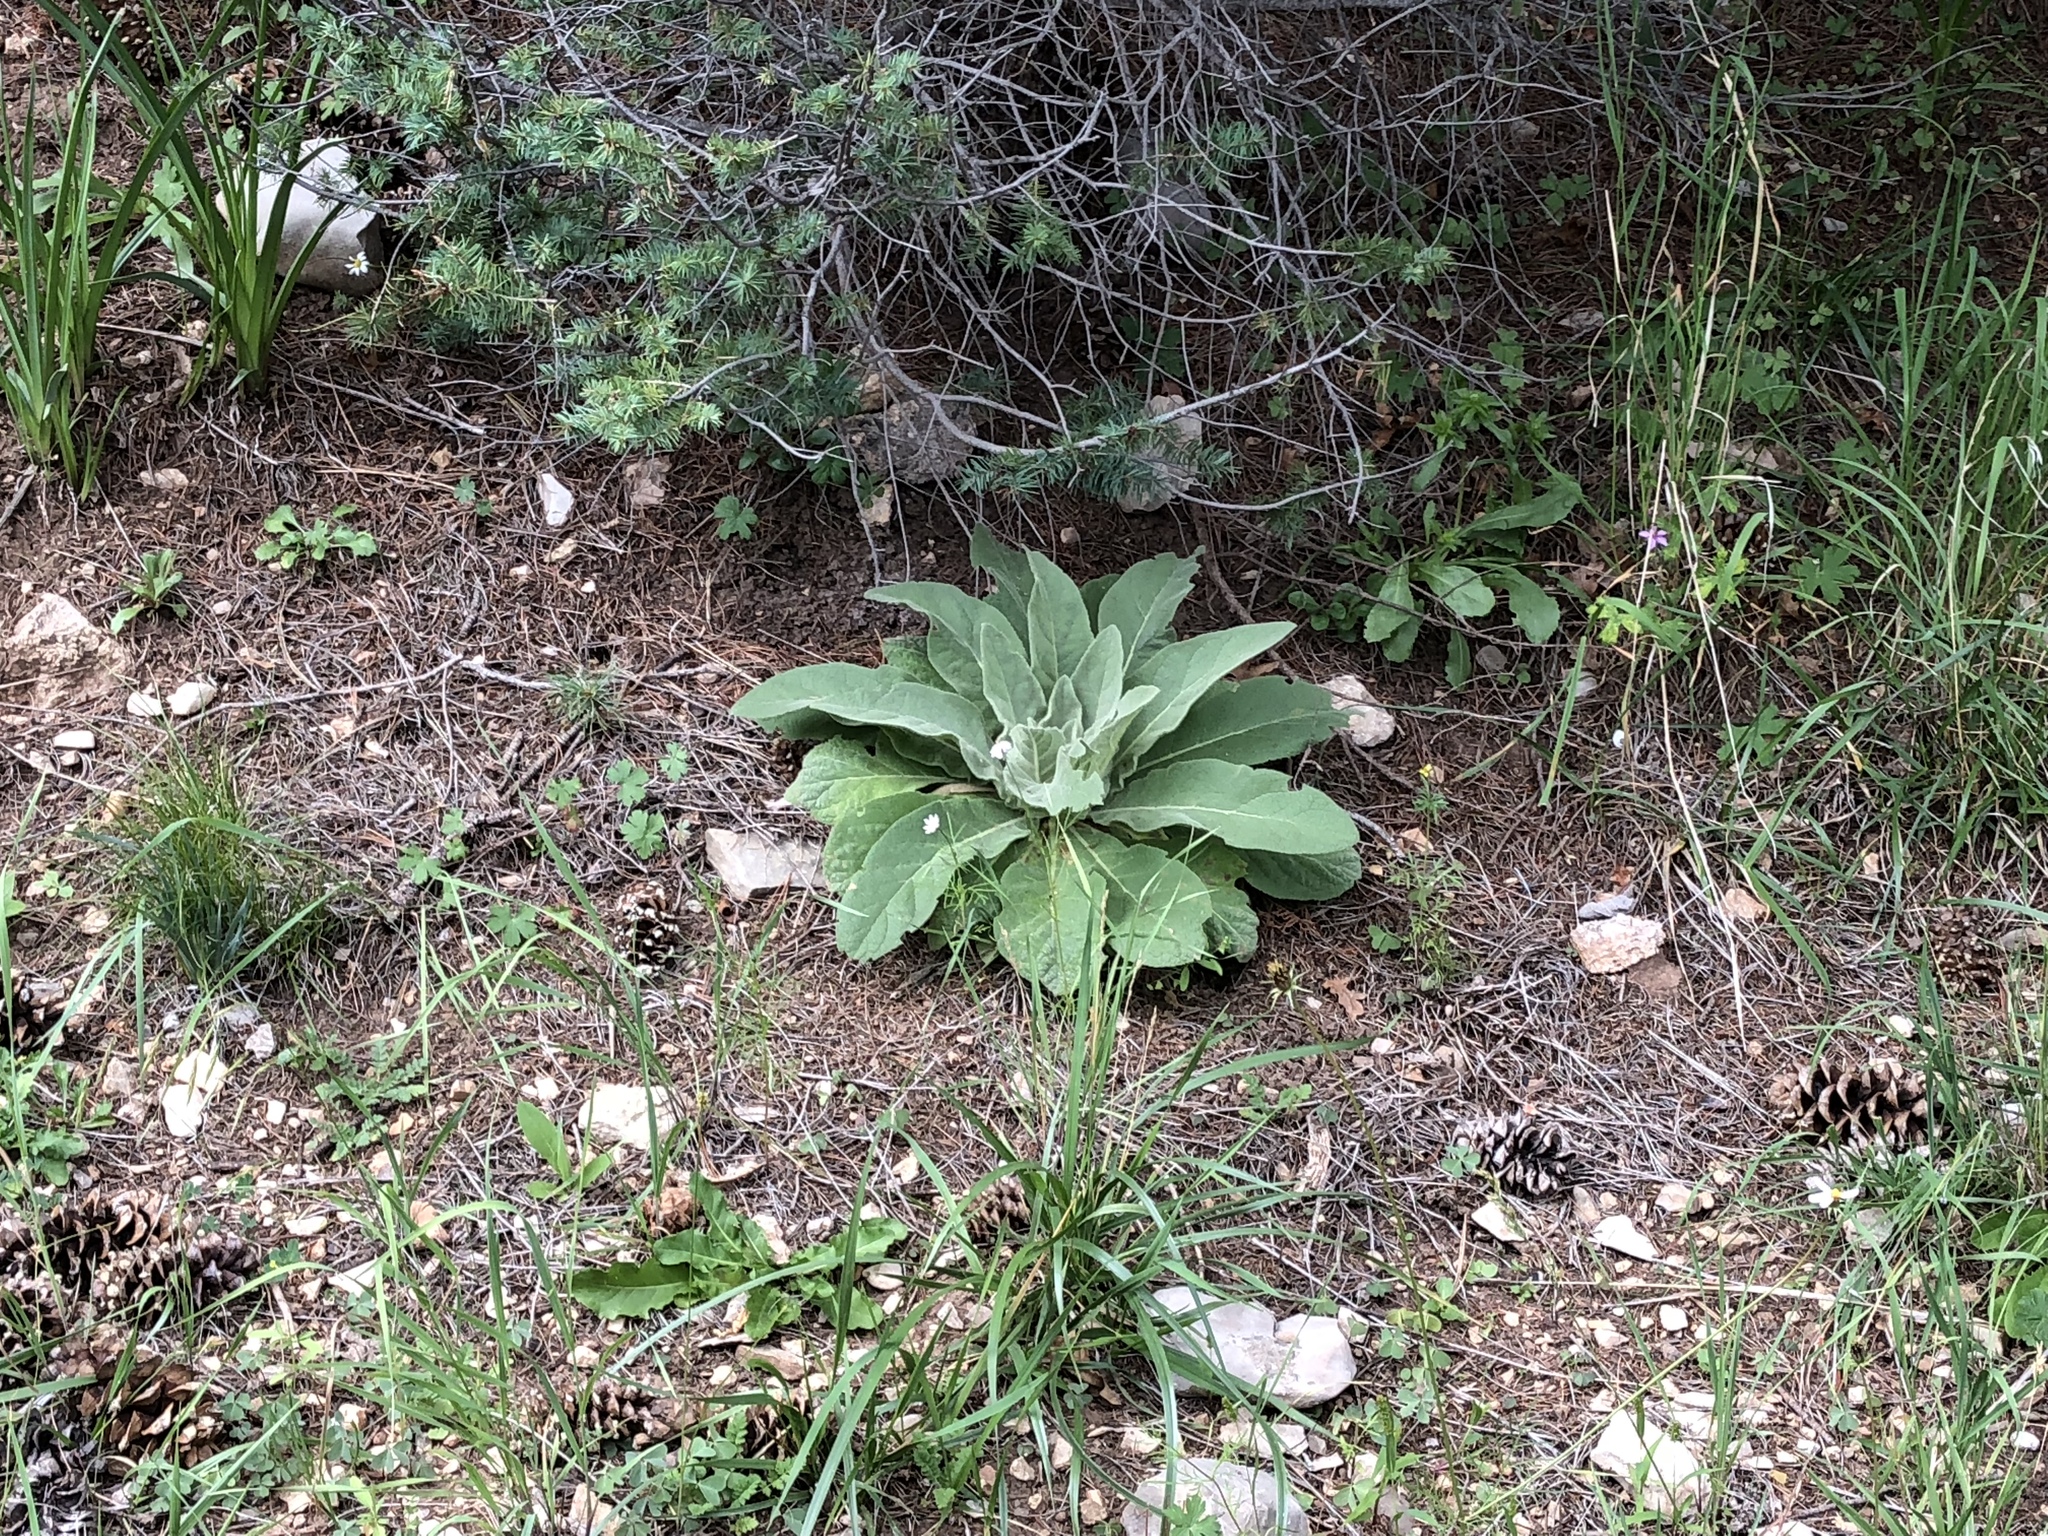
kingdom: Plantae
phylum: Tracheophyta
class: Magnoliopsida
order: Lamiales
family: Scrophulariaceae
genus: Verbascum
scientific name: Verbascum thapsus
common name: Common mullein
